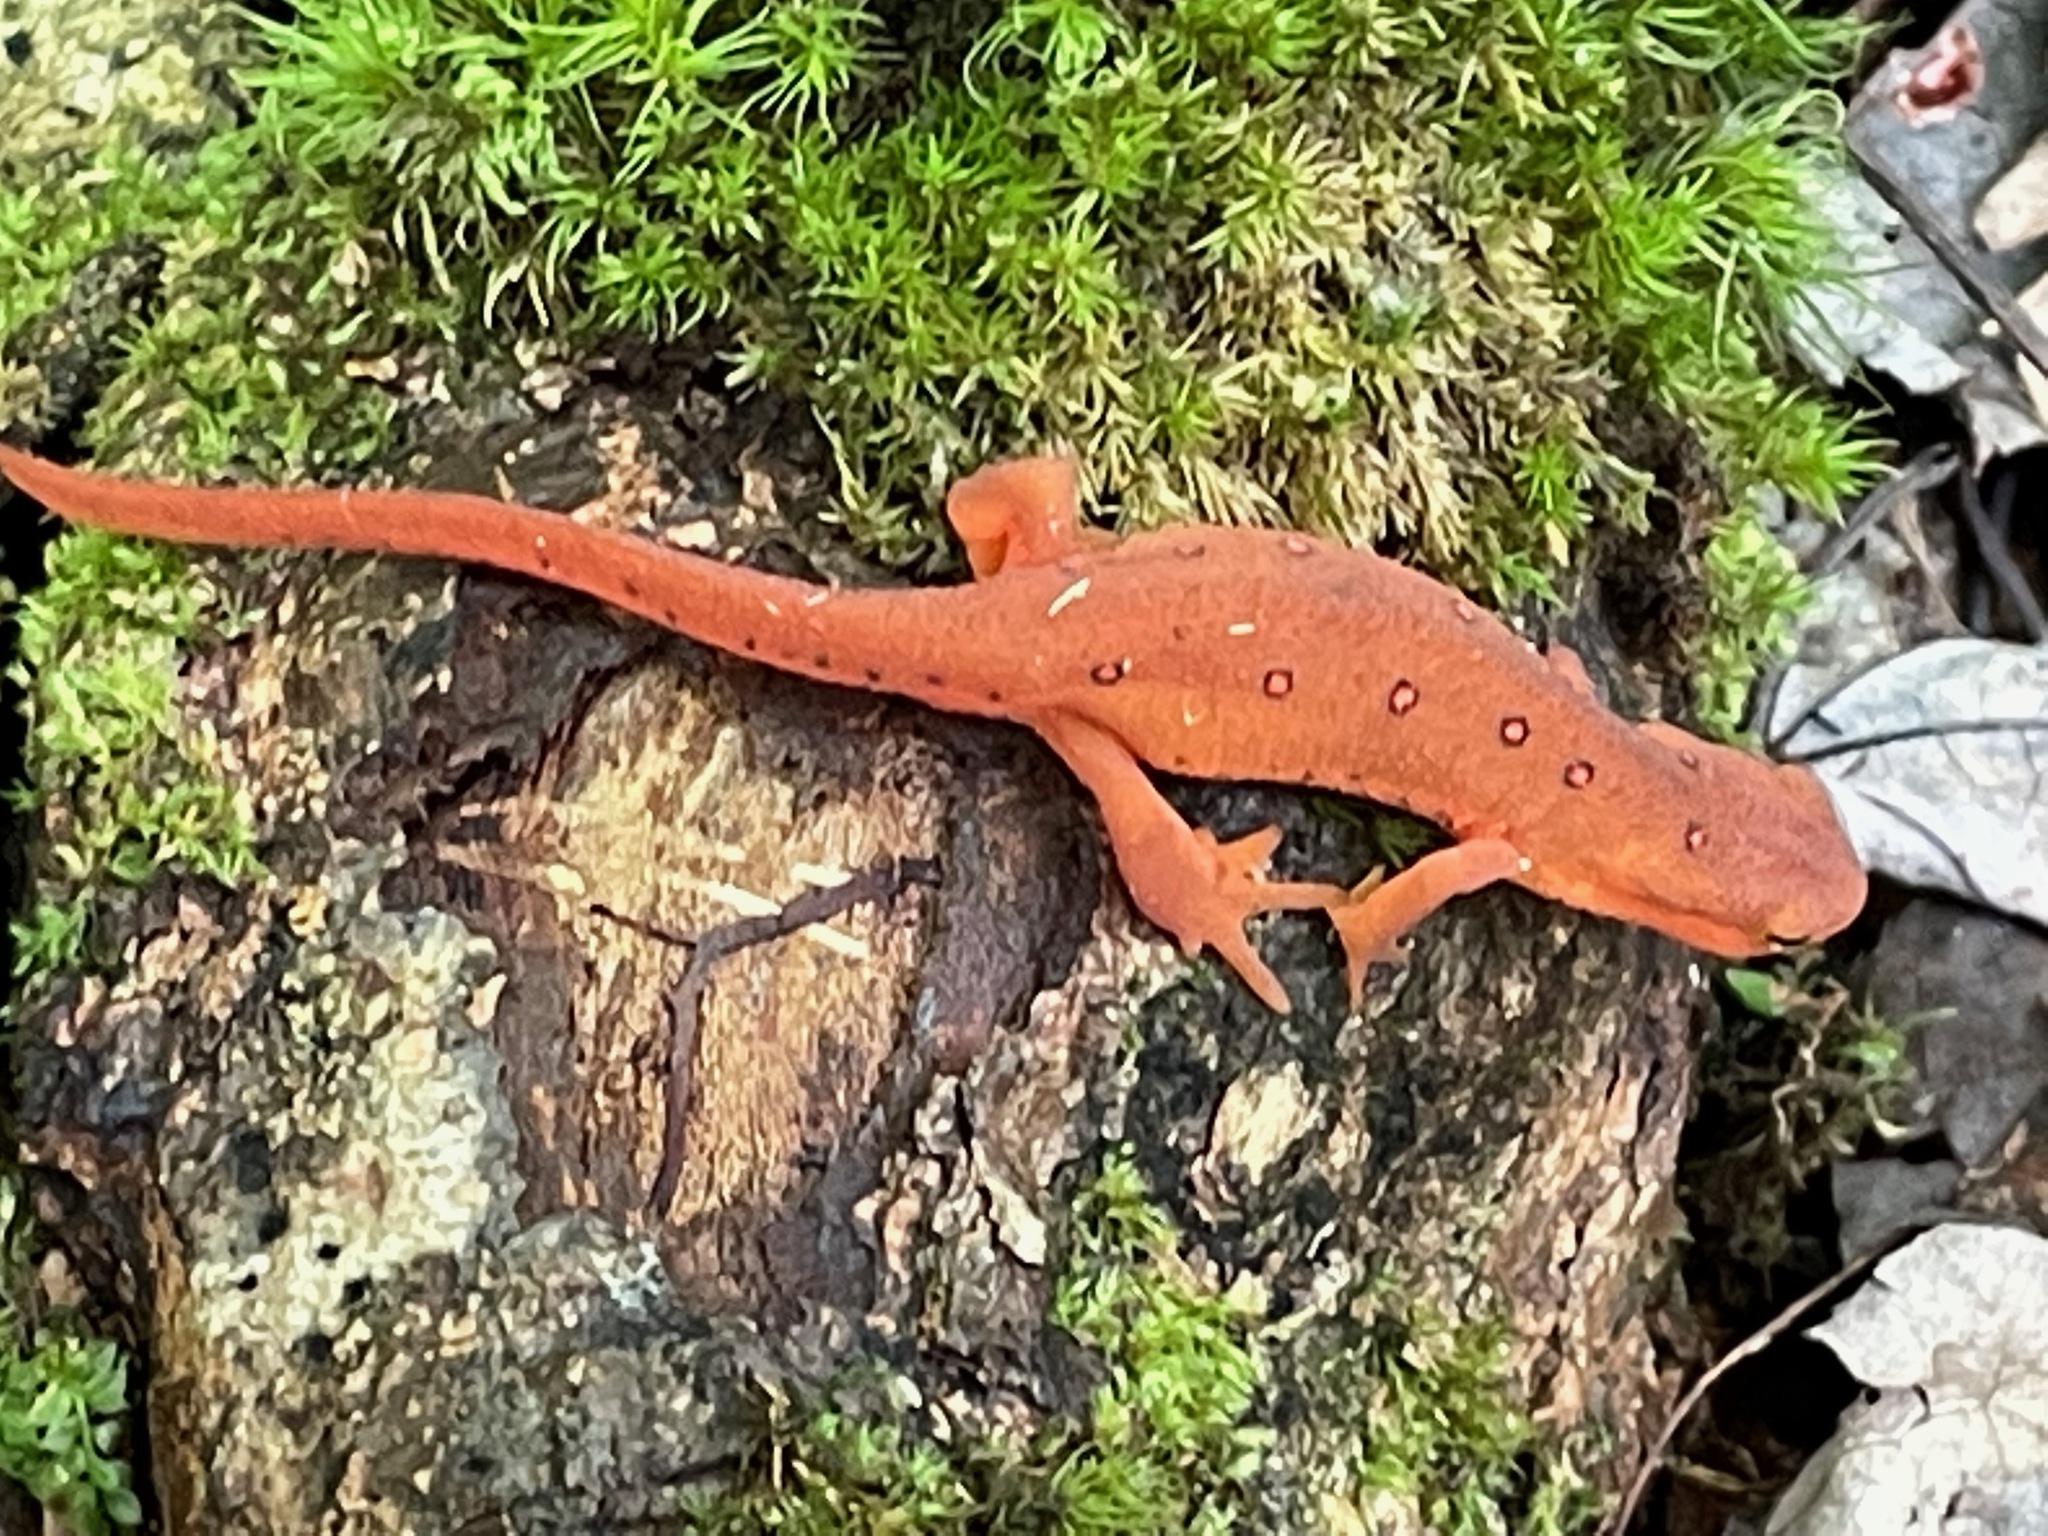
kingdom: Animalia
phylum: Chordata
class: Amphibia
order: Caudata
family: Salamandridae
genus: Notophthalmus
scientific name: Notophthalmus viridescens
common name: Eastern newt
